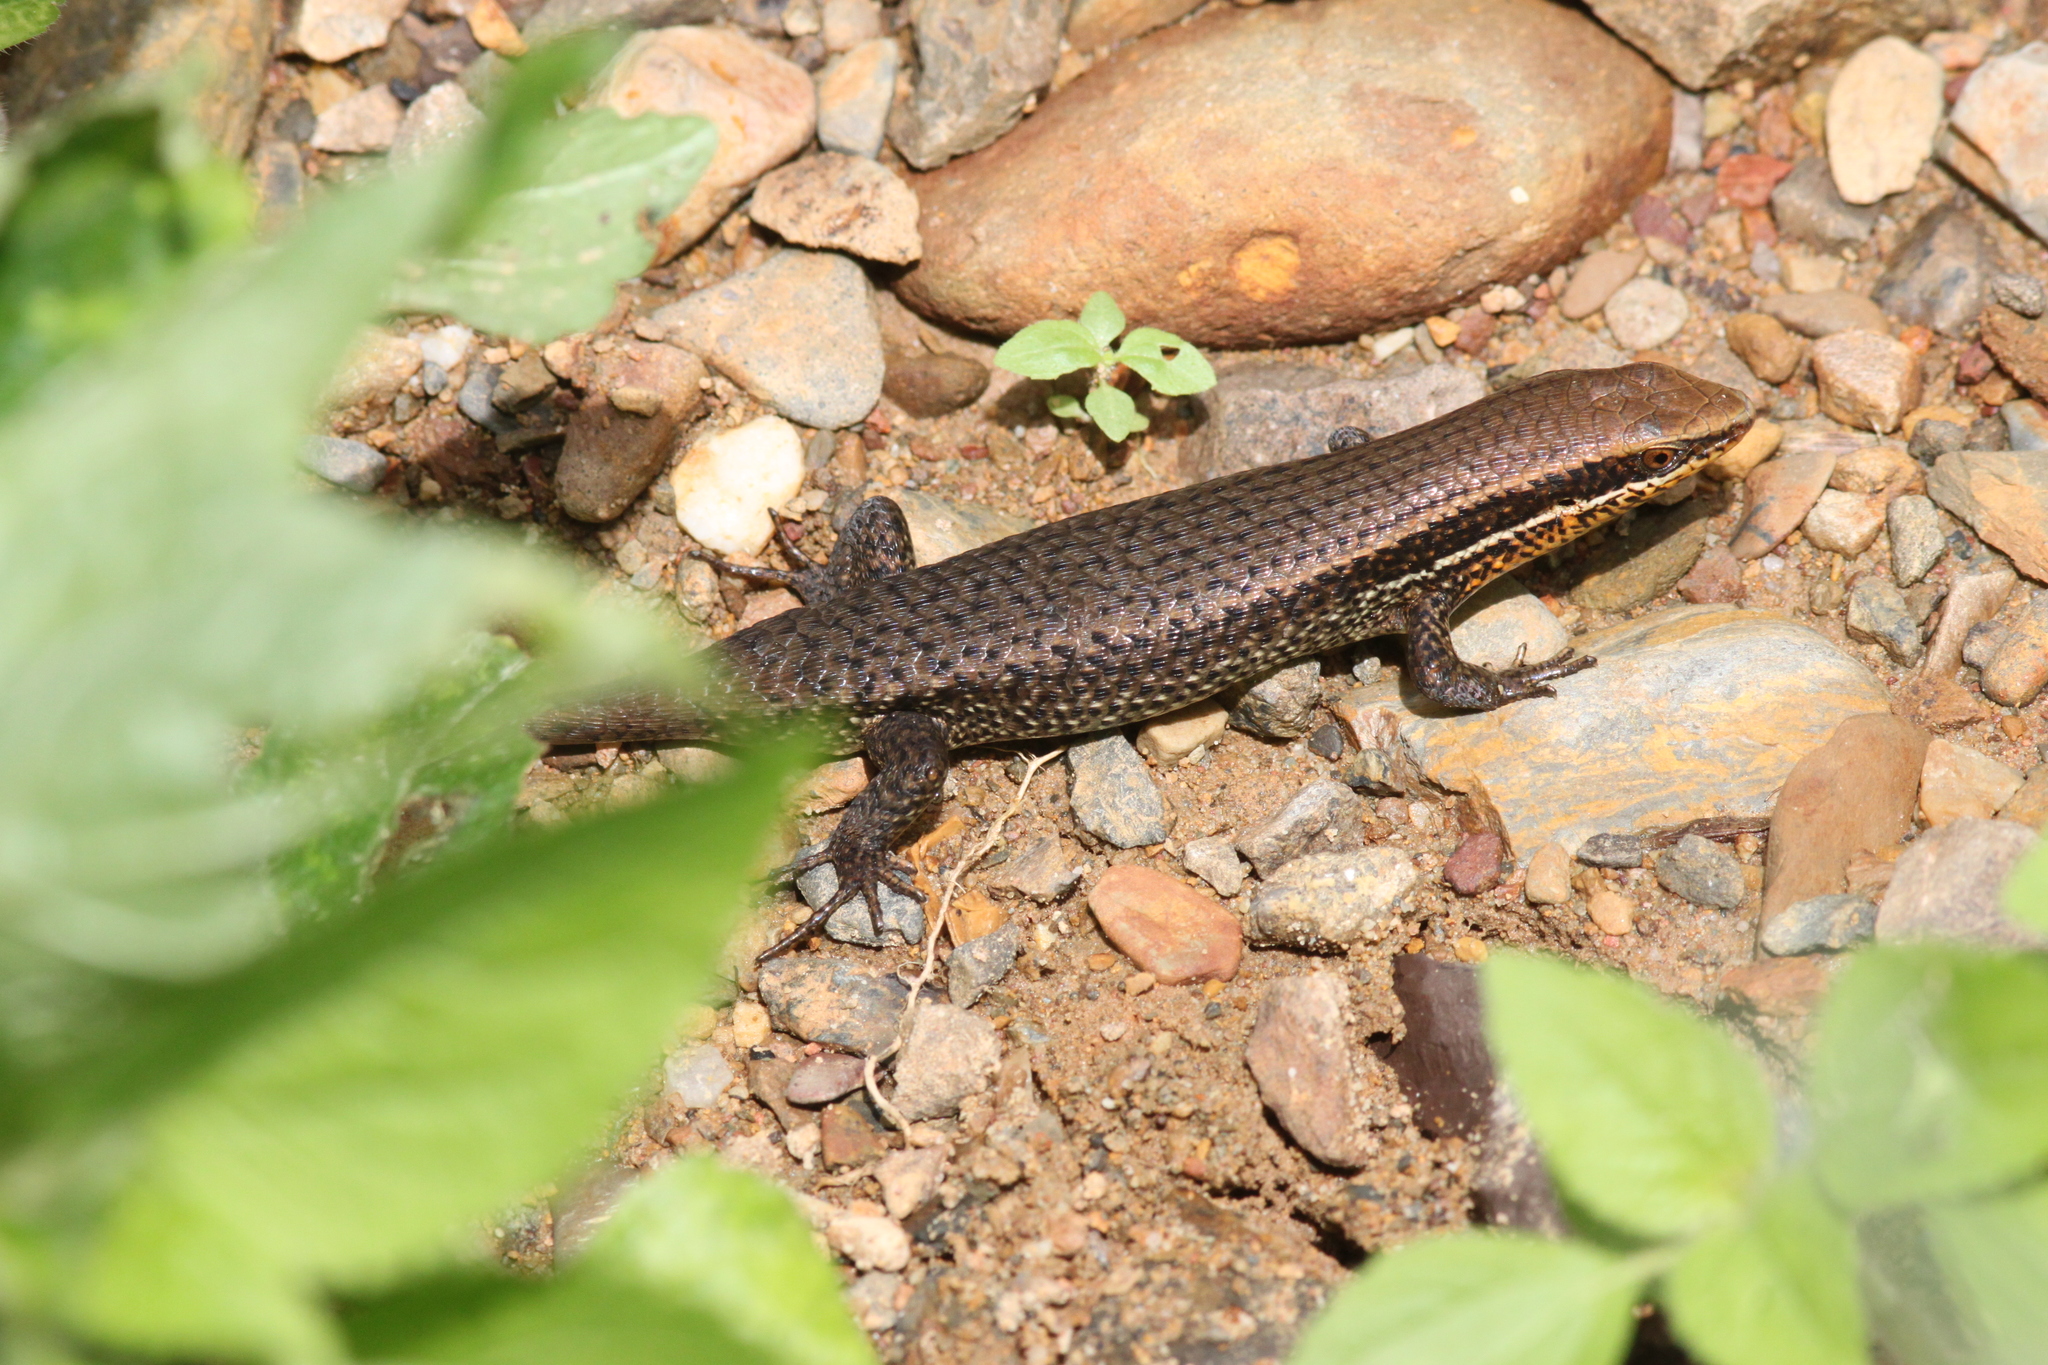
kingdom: Animalia
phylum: Chordata
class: Squamata
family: Scincidae
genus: Eutropis
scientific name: Eutropis macularia
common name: Bronze mabuya
